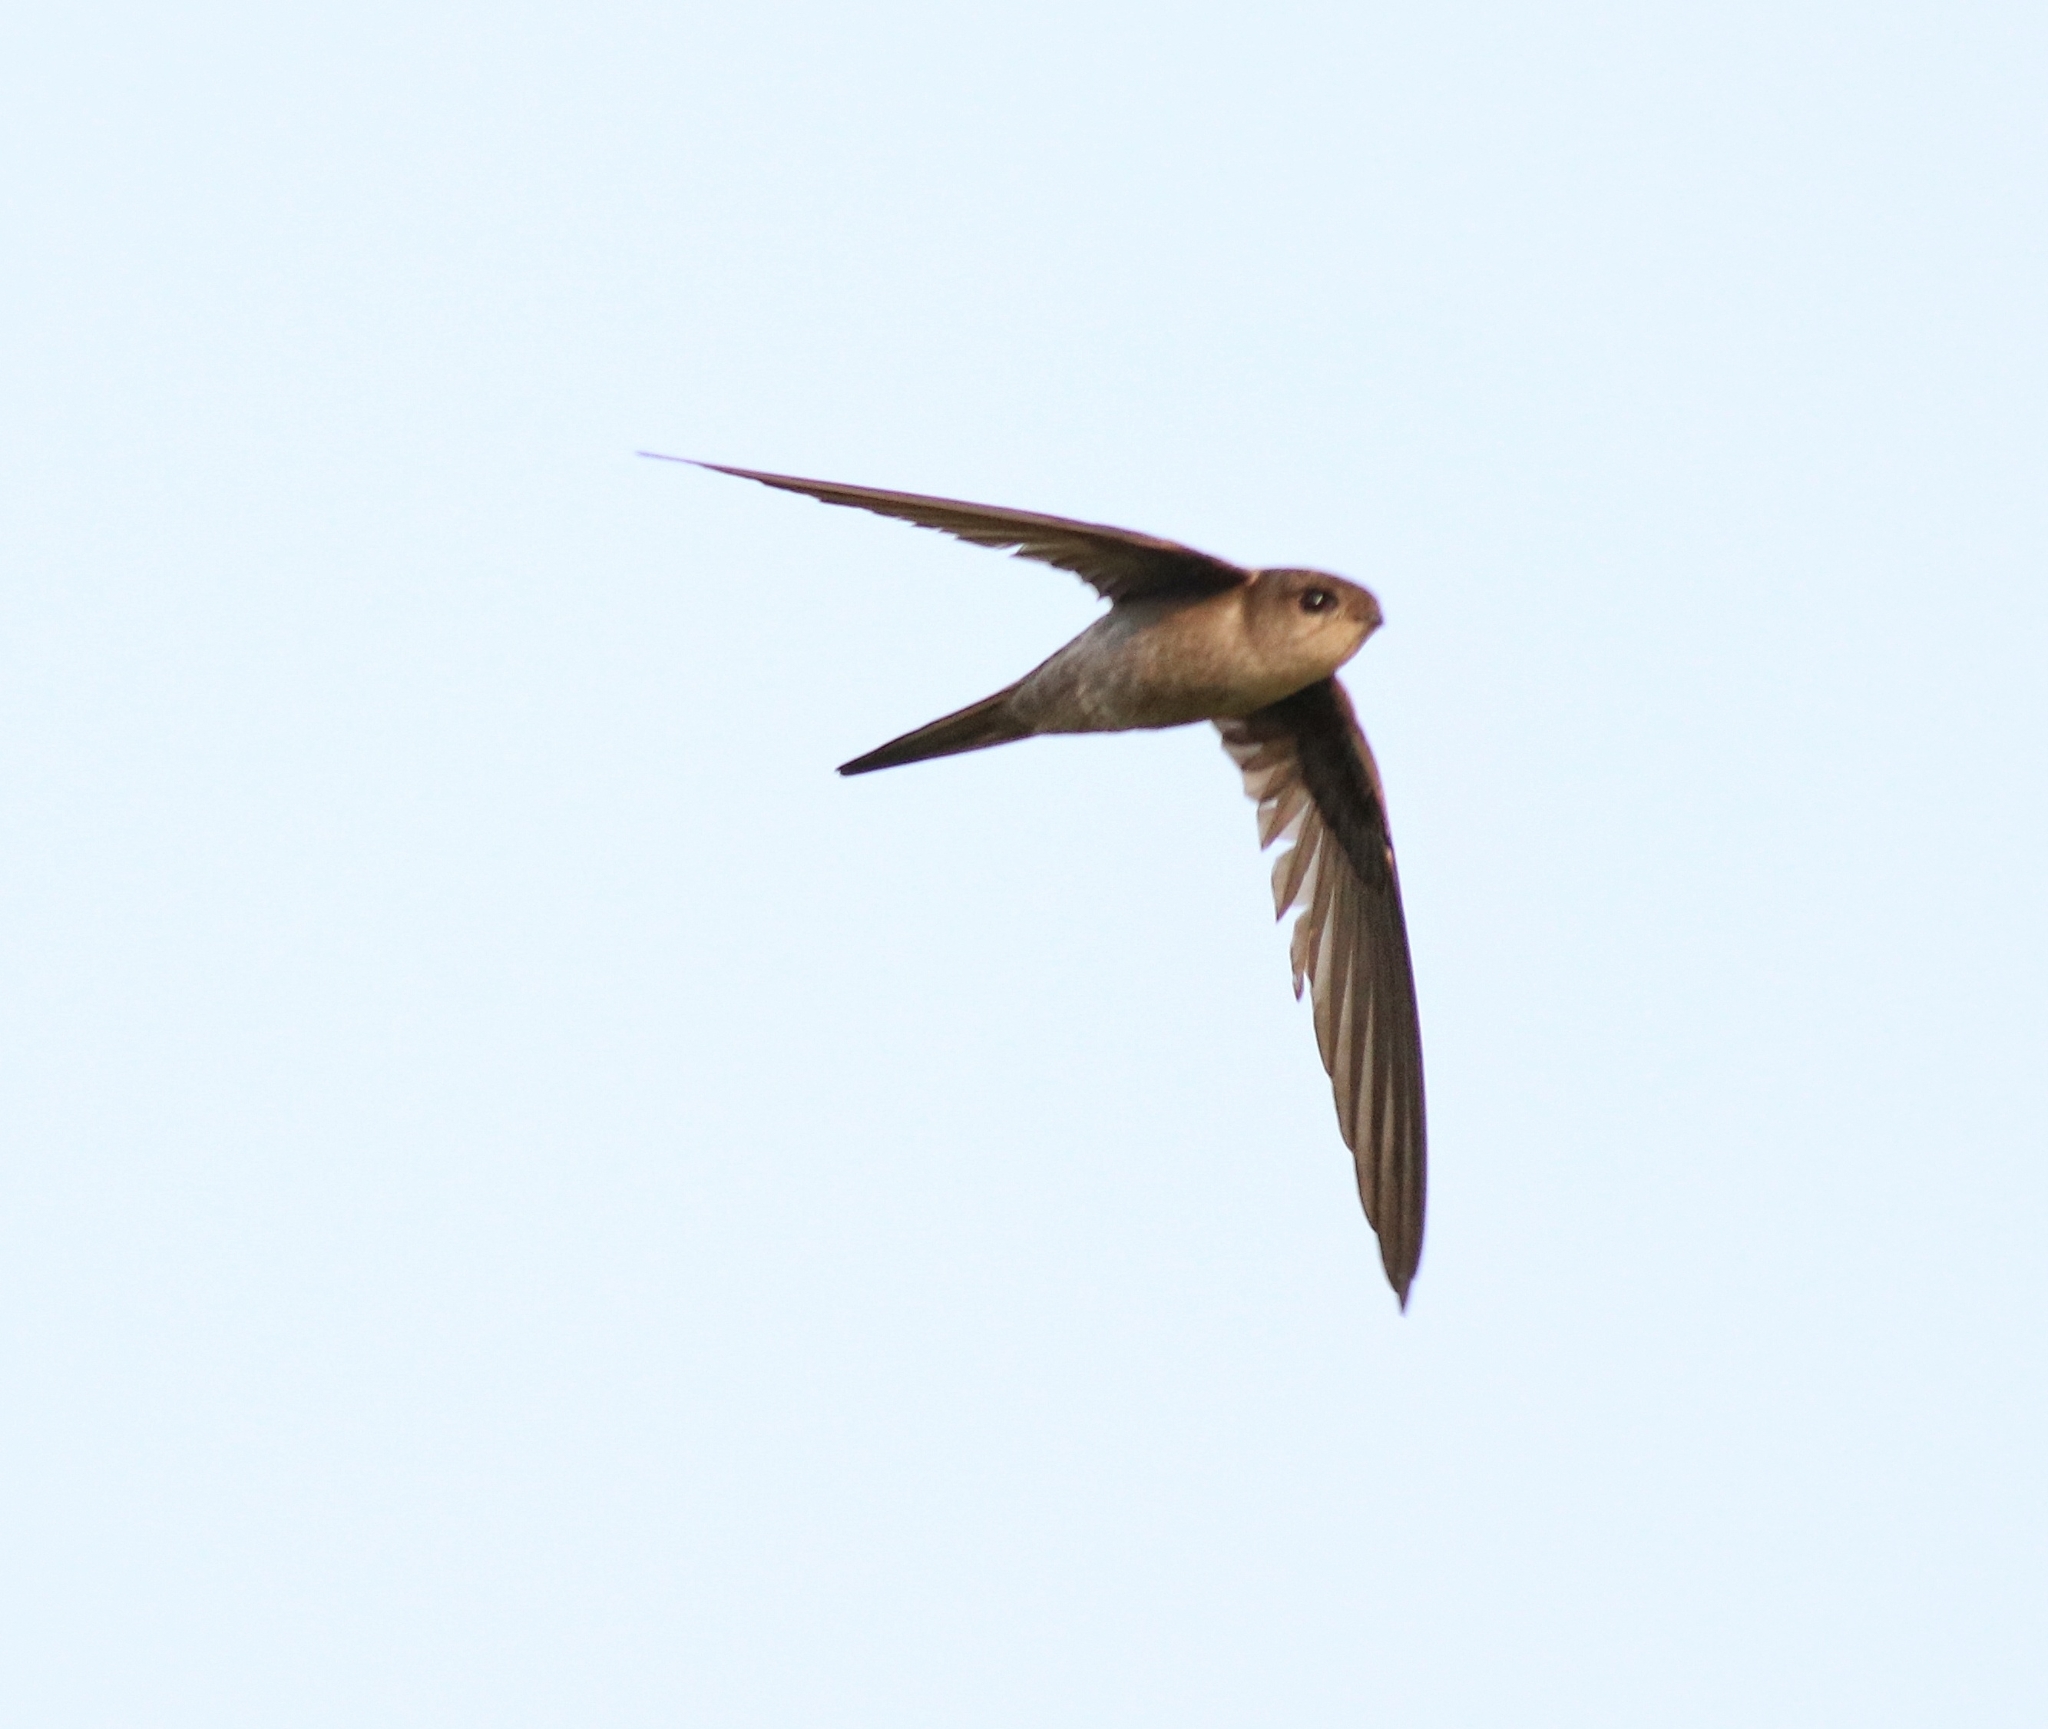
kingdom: Animalia
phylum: Chordata
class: Aves
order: Apodiformes
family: Apodidae
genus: Cypsiurus
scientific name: Cypsiurus balasiensis
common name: Asian palm swift
